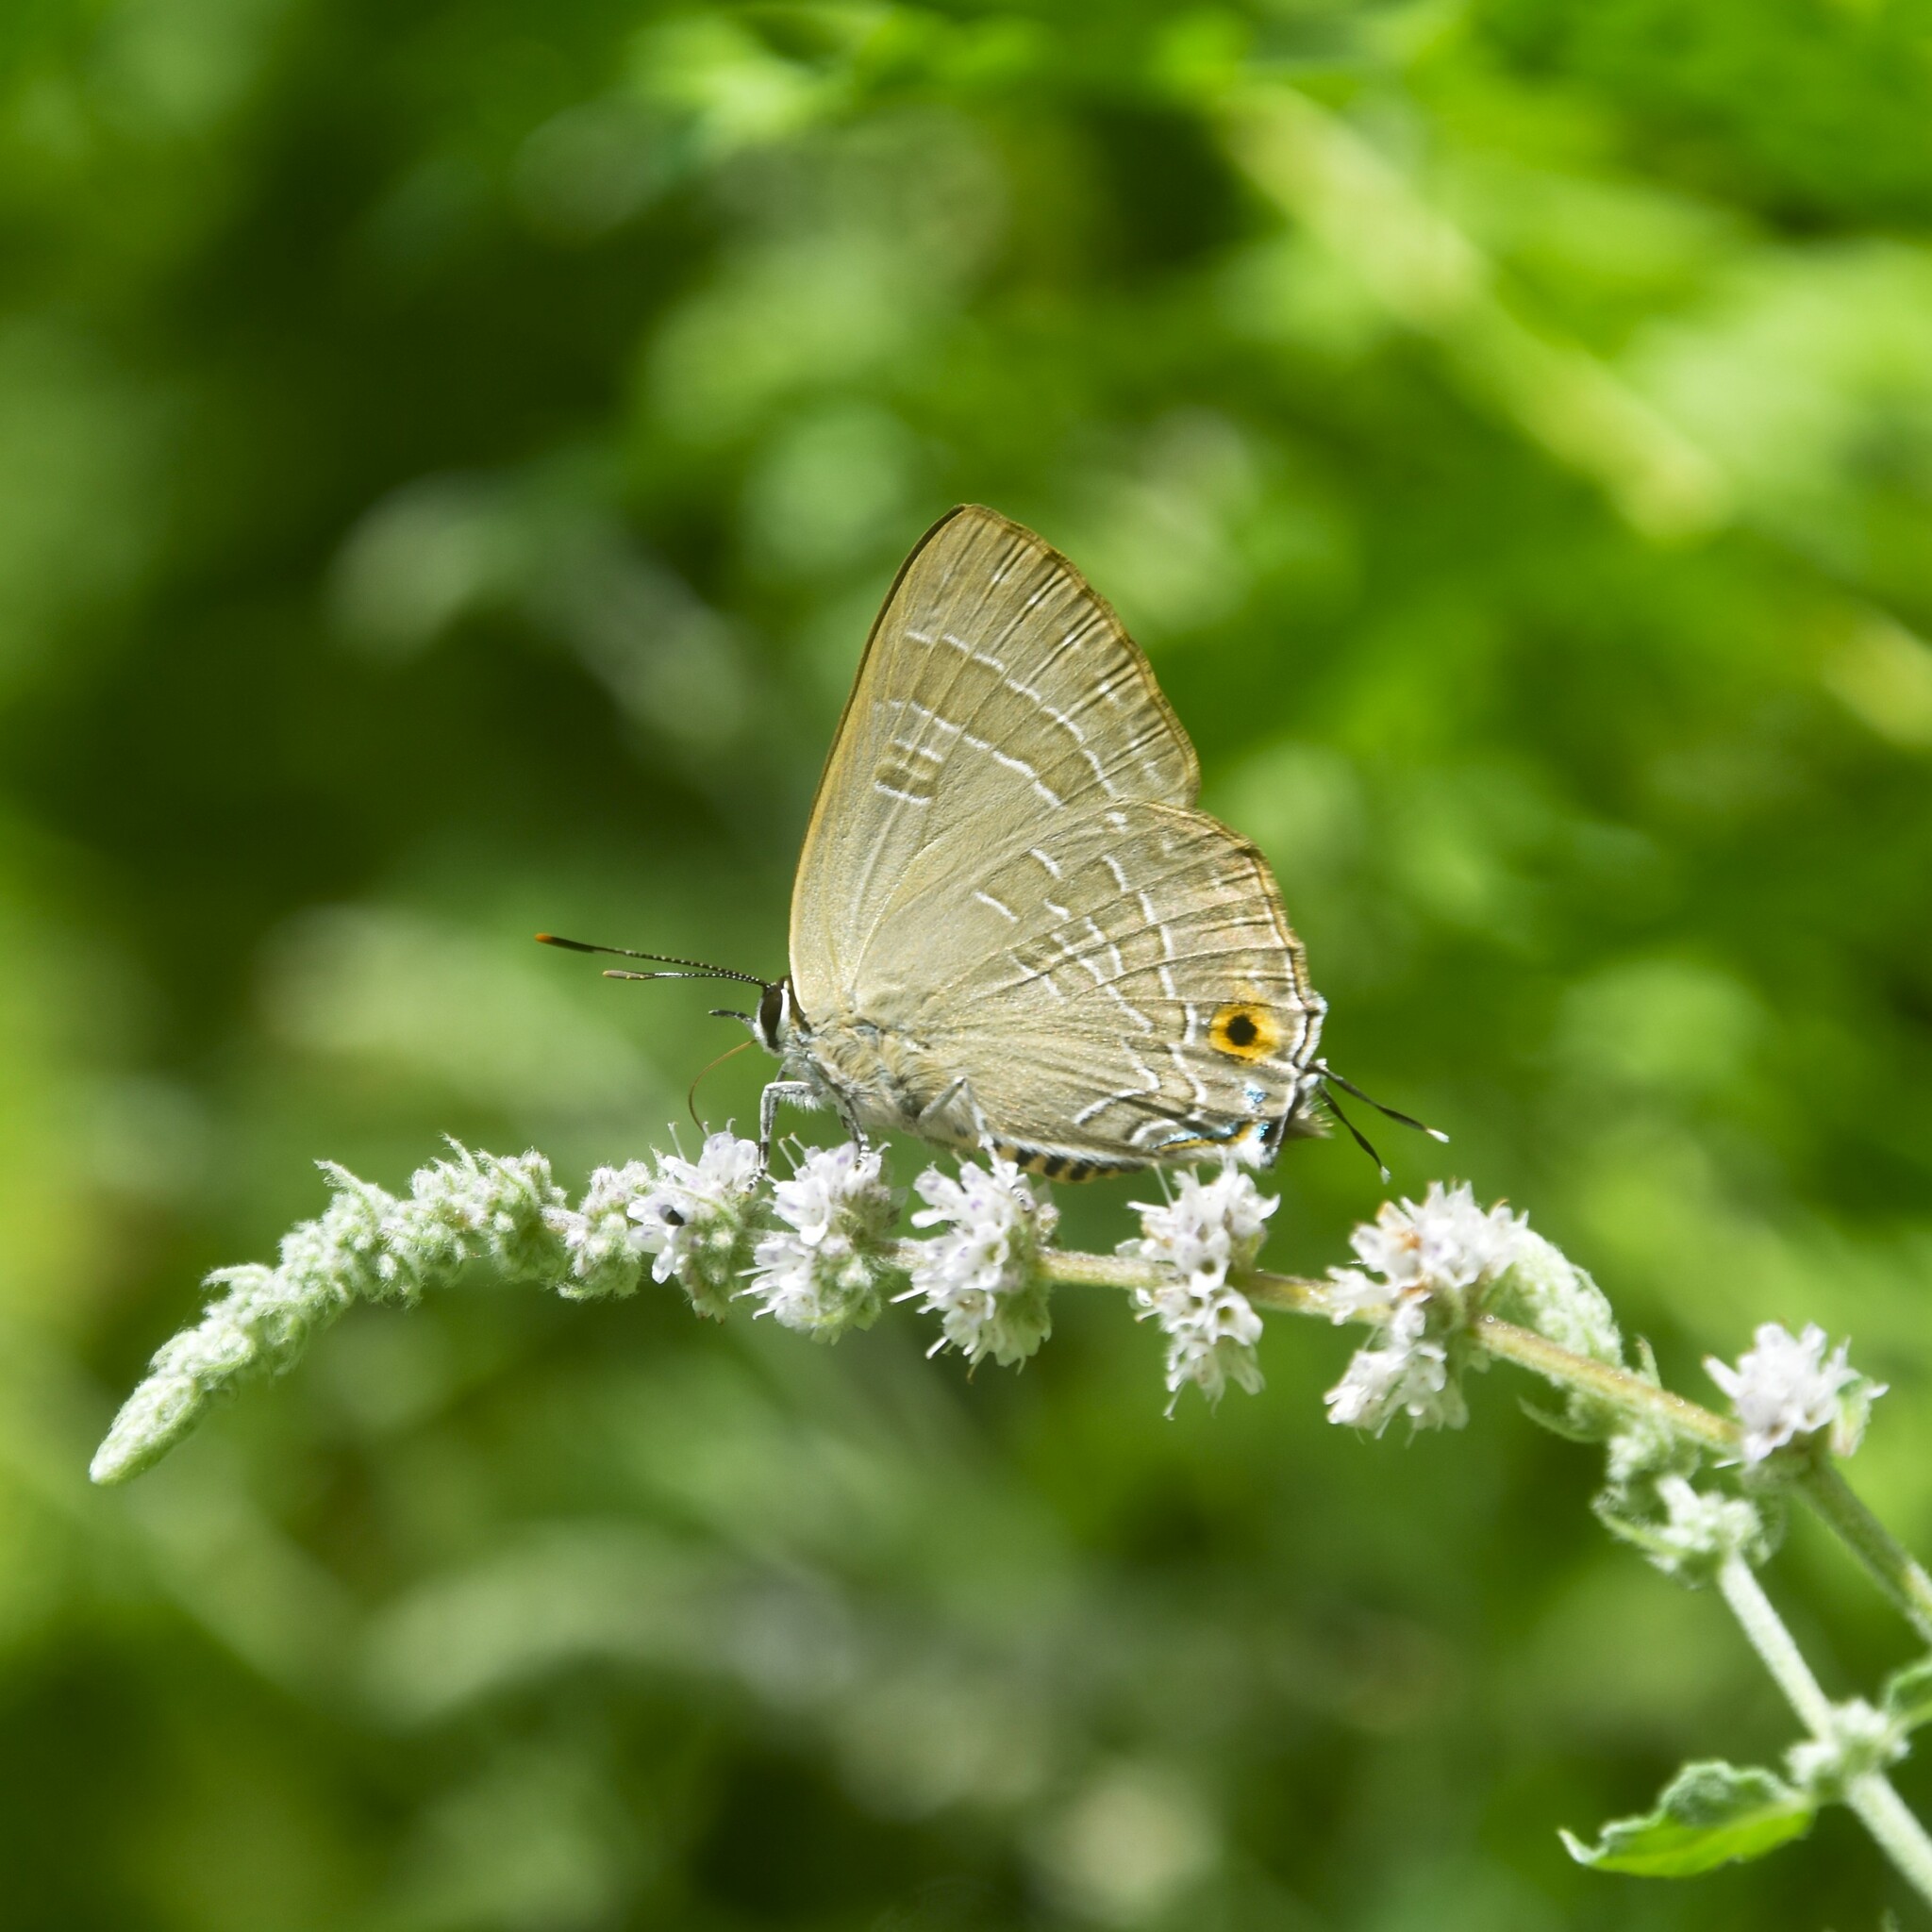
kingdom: Animalia
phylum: Arthropoda
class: Insecta
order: Lepidoptera
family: Lycaenidae
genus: Deudorix
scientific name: Deudorix epijarbas
